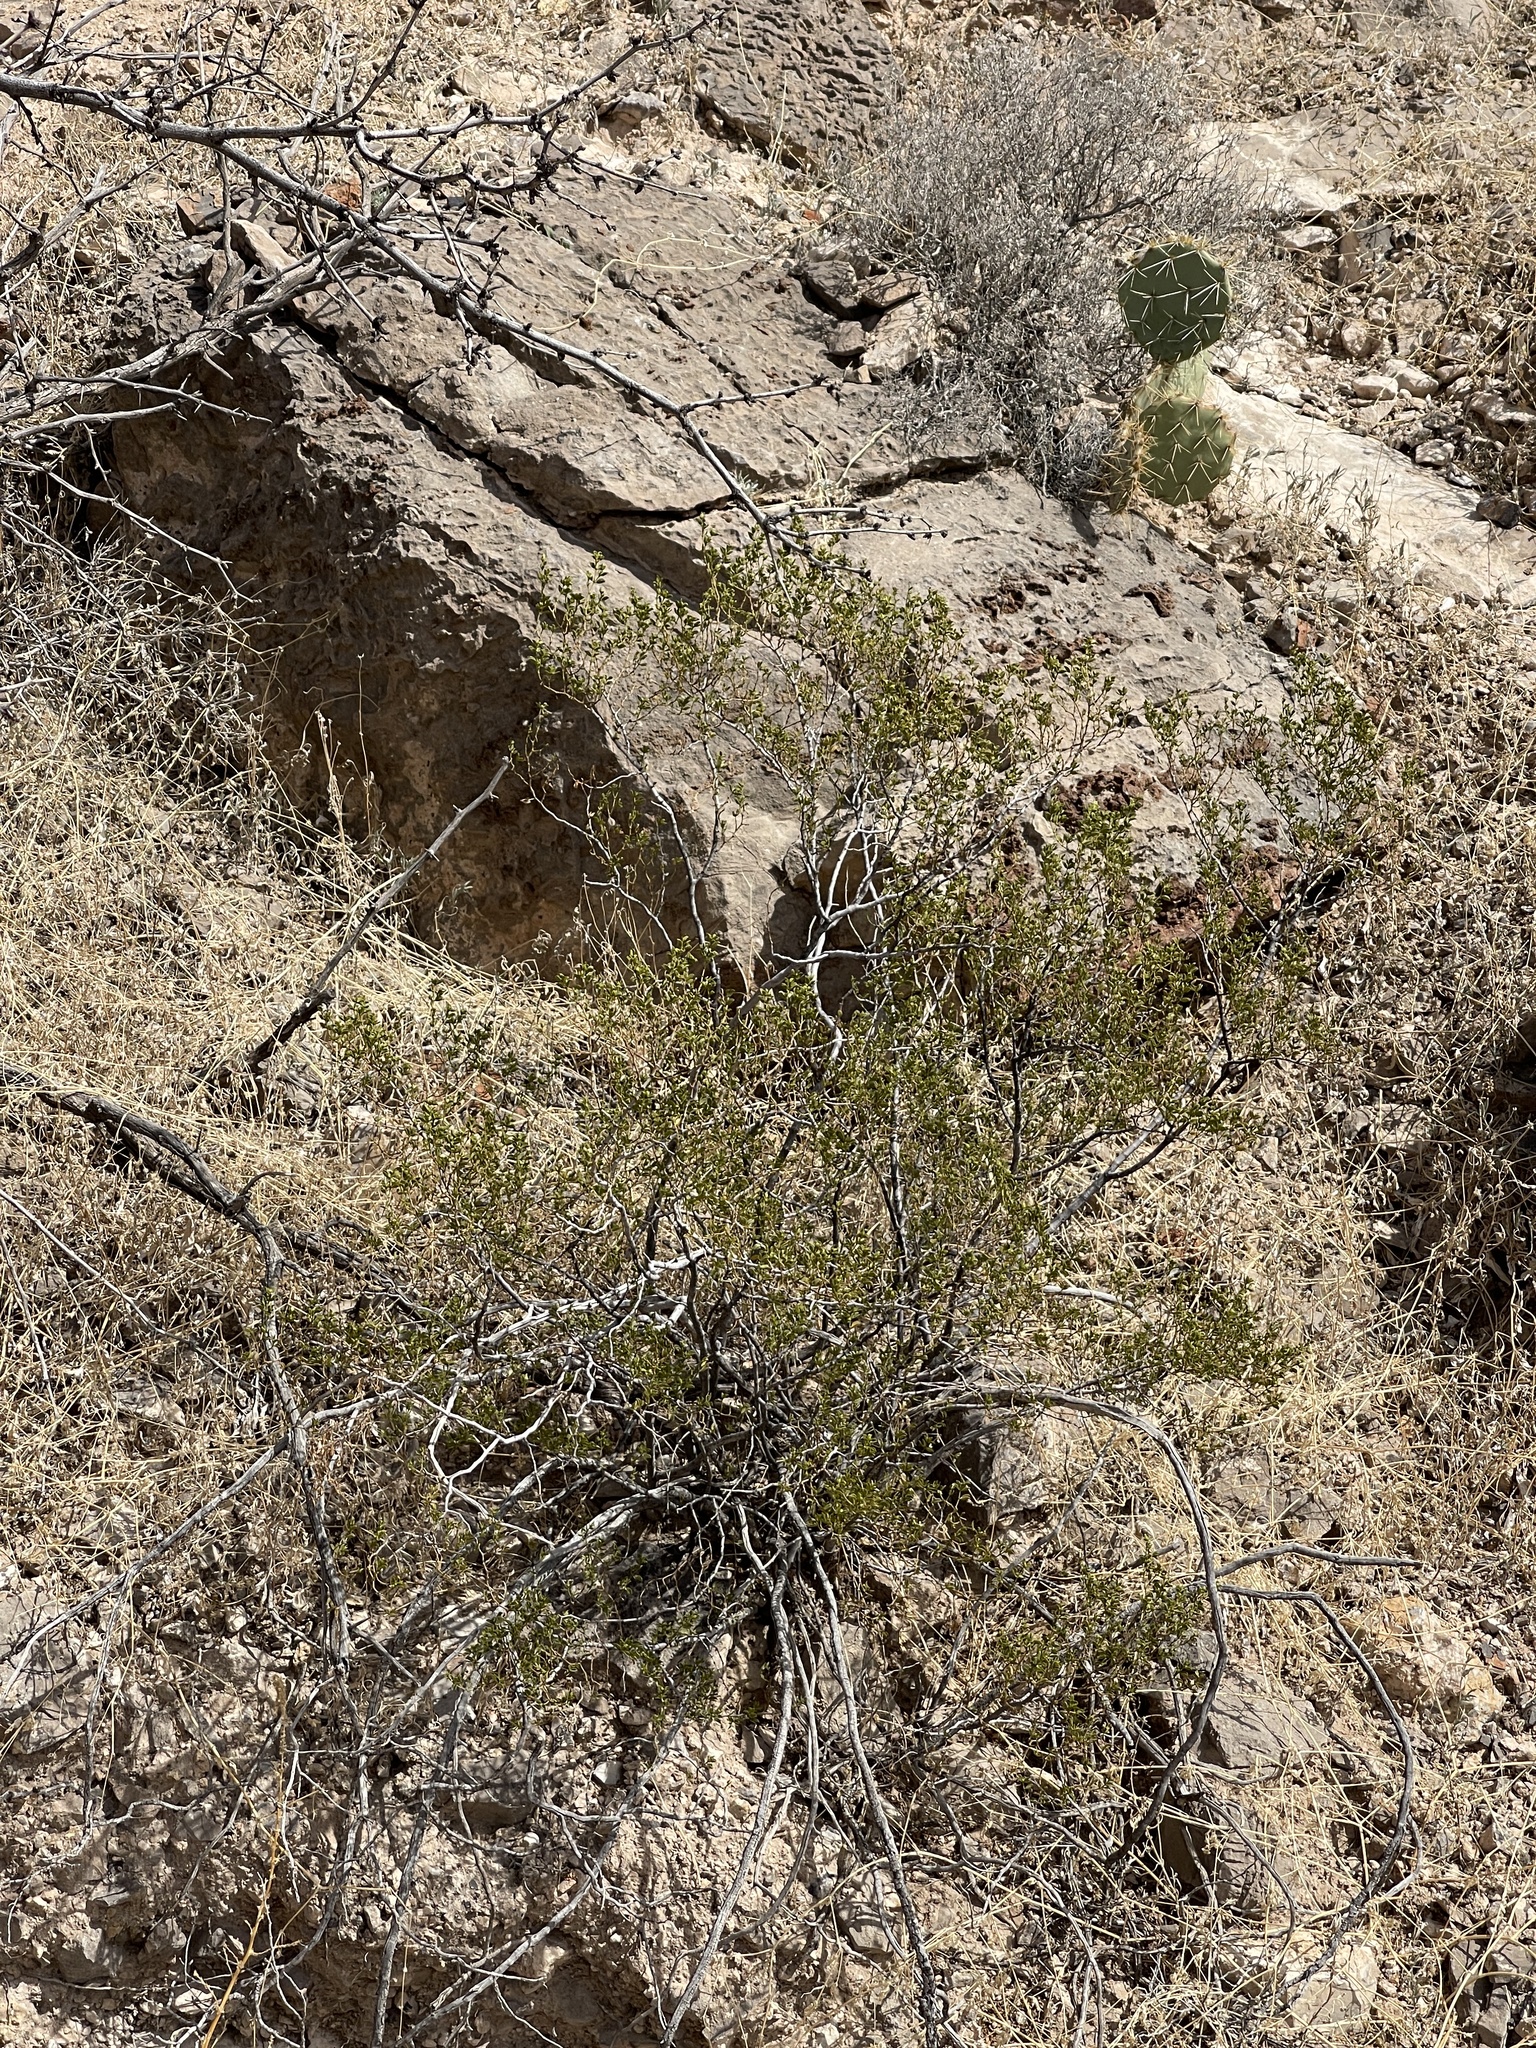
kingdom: Plantae
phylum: Tracheophyta
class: Magnoliopsida
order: Zygophyllales
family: Zygophyllaceae
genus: Larrea
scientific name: Larrea tridentata
